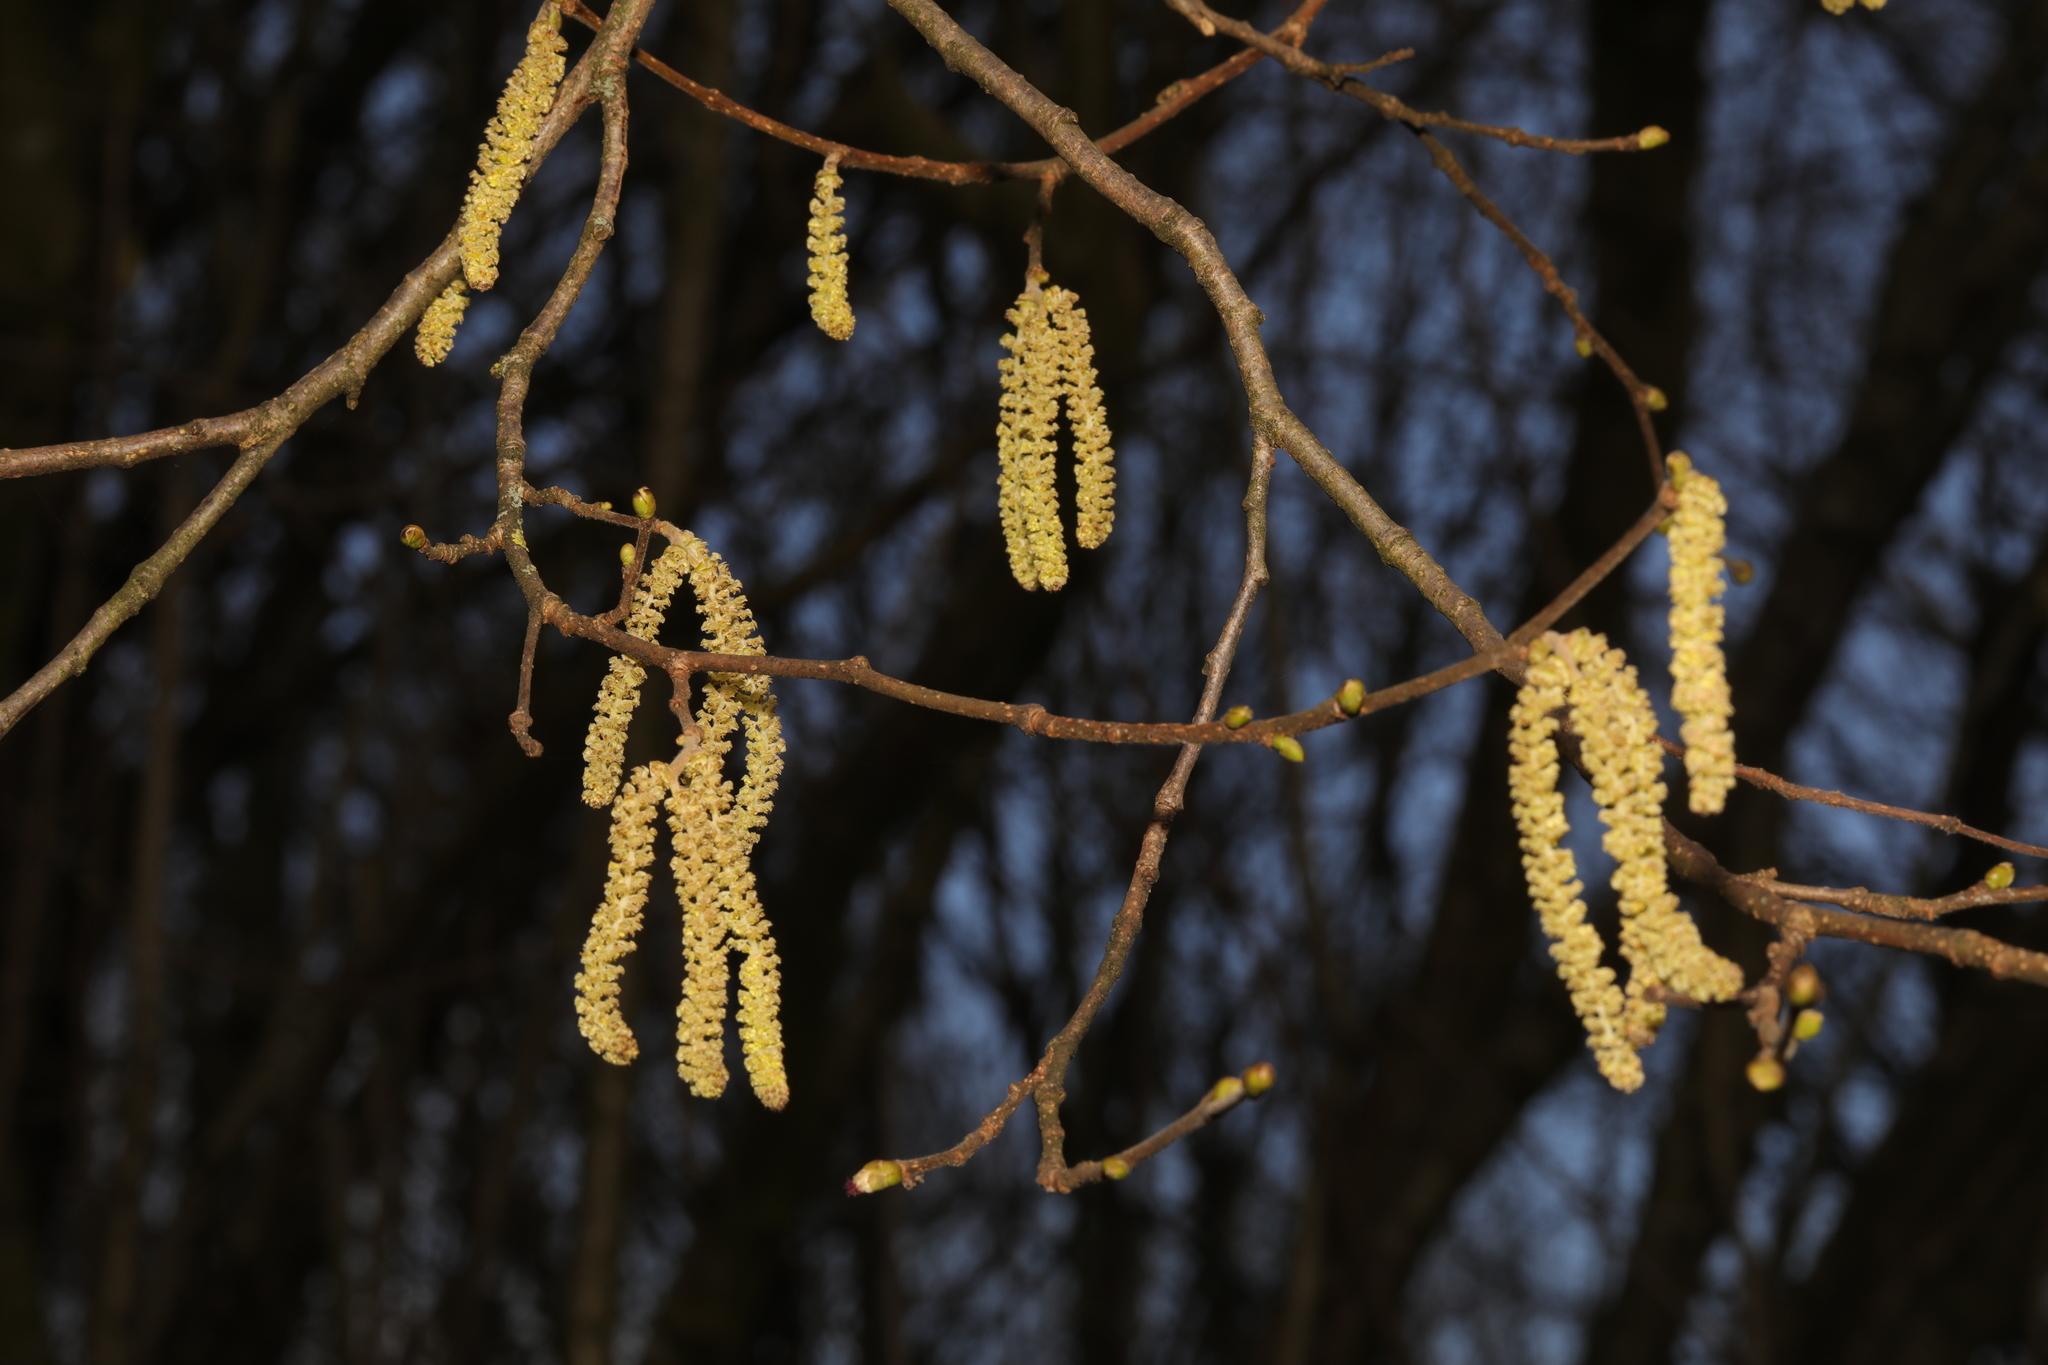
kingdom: Plantae
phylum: Tracheophyta
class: Magnoliopsida
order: Fagales
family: Betulaceae
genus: Corylus
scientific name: Corylus avellana
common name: European hazel
